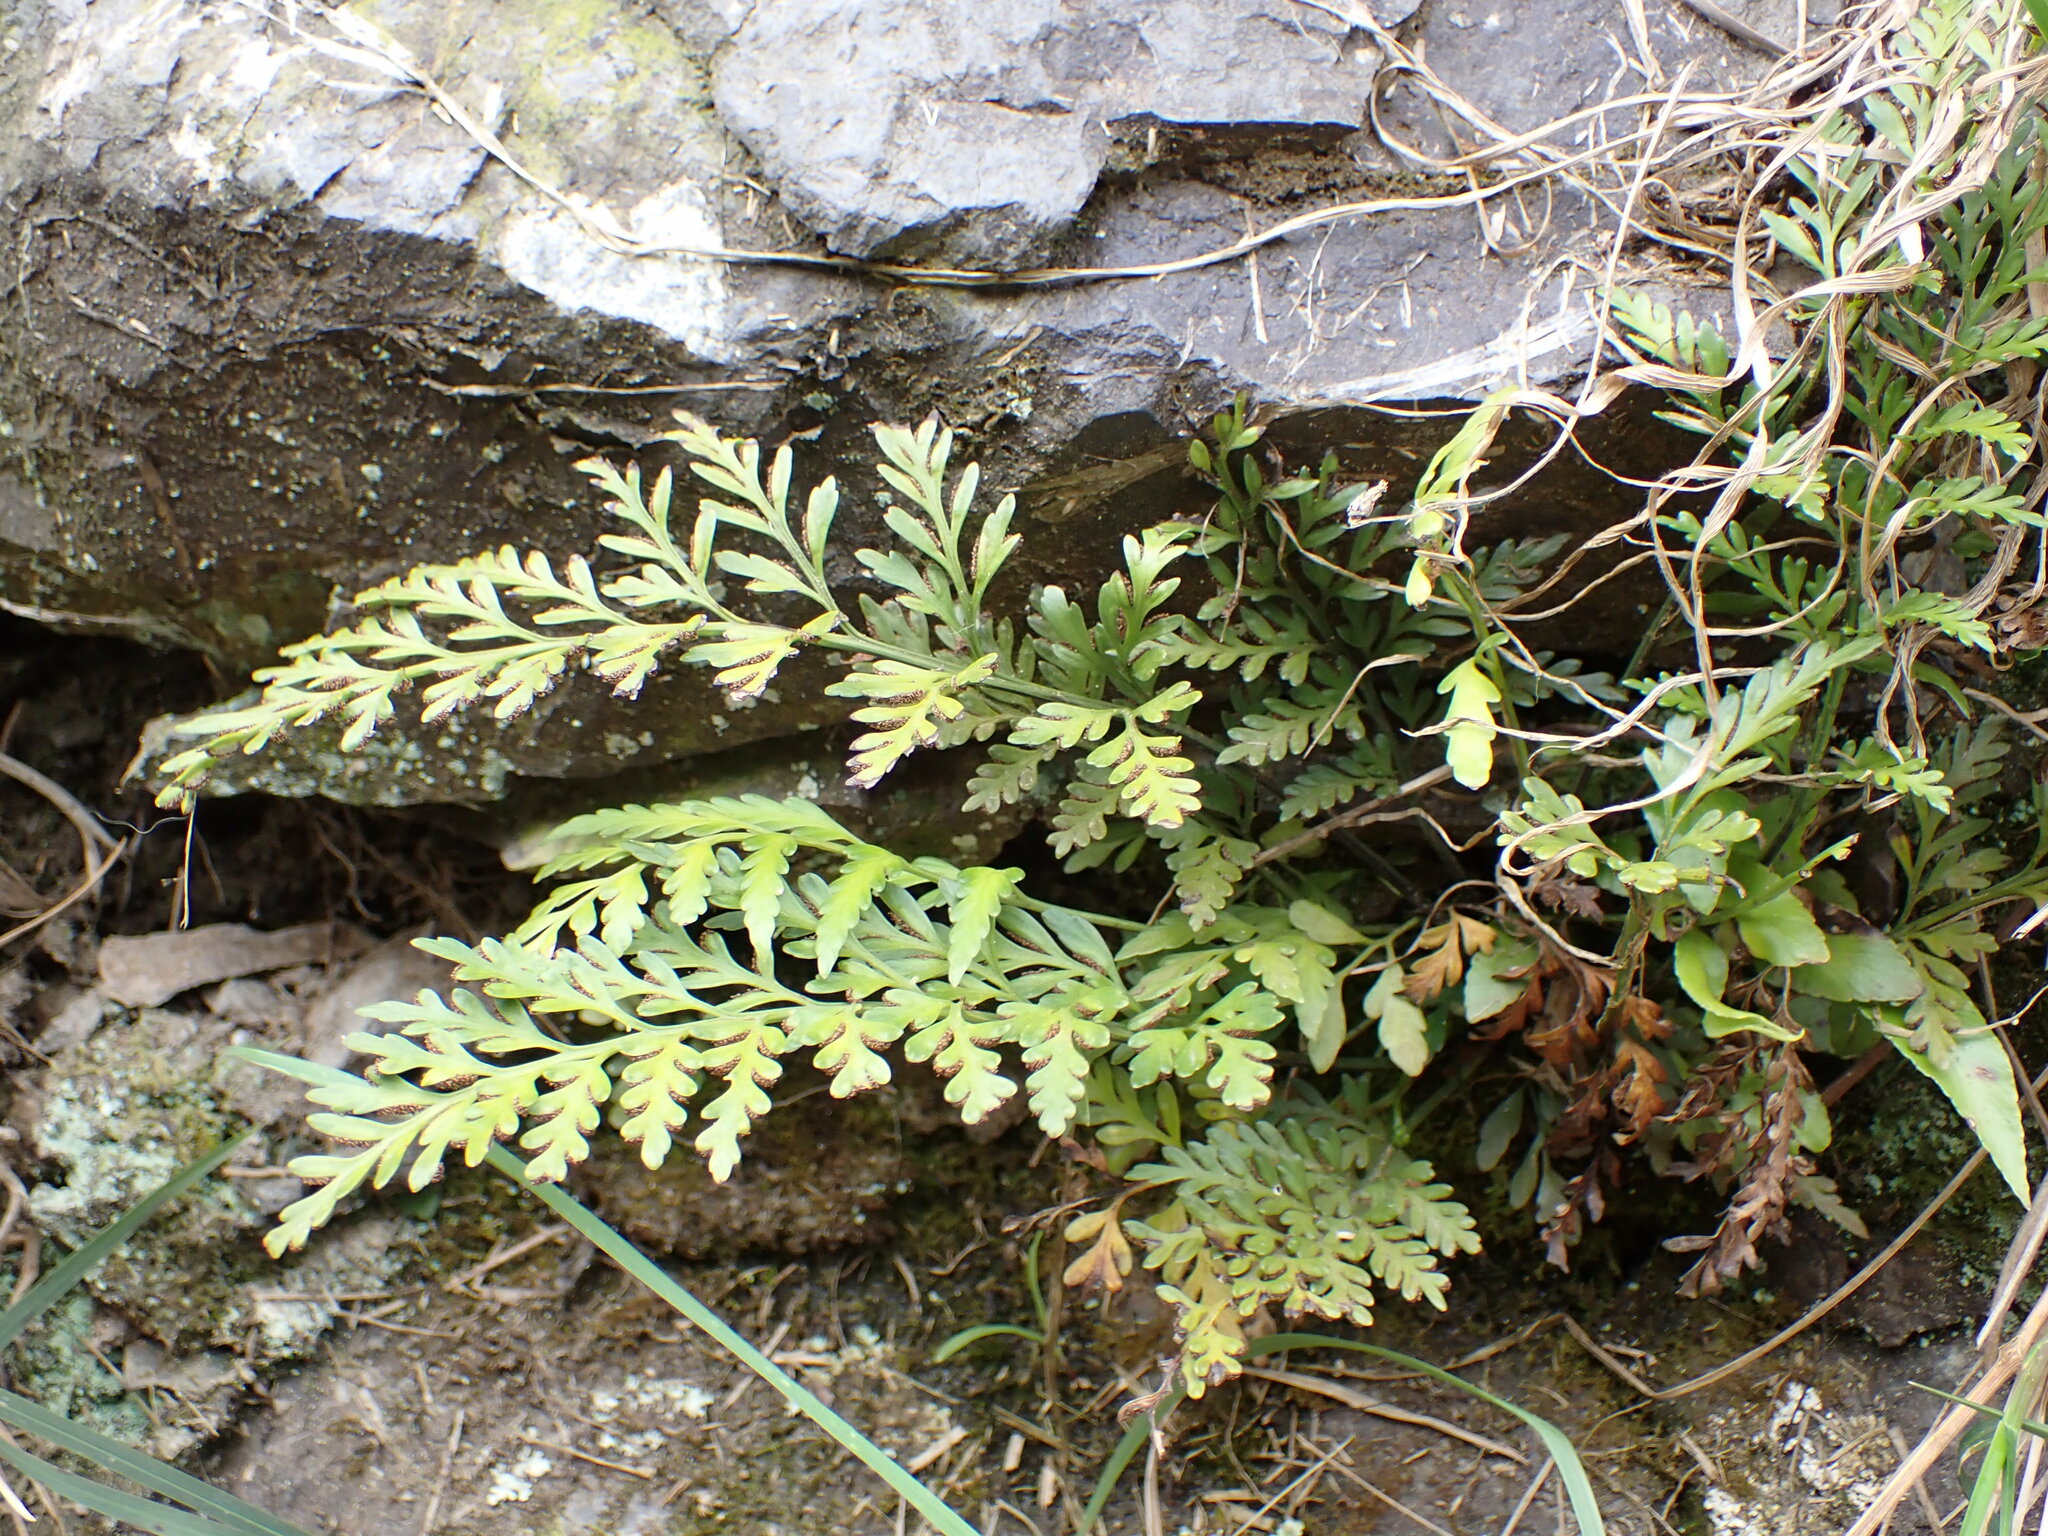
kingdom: Plantae
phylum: Tracheophyta
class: Polypodiopsida
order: Polypodiales
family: Aspleniaceae
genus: Asplenium
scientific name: Asplenium appendiculatum
